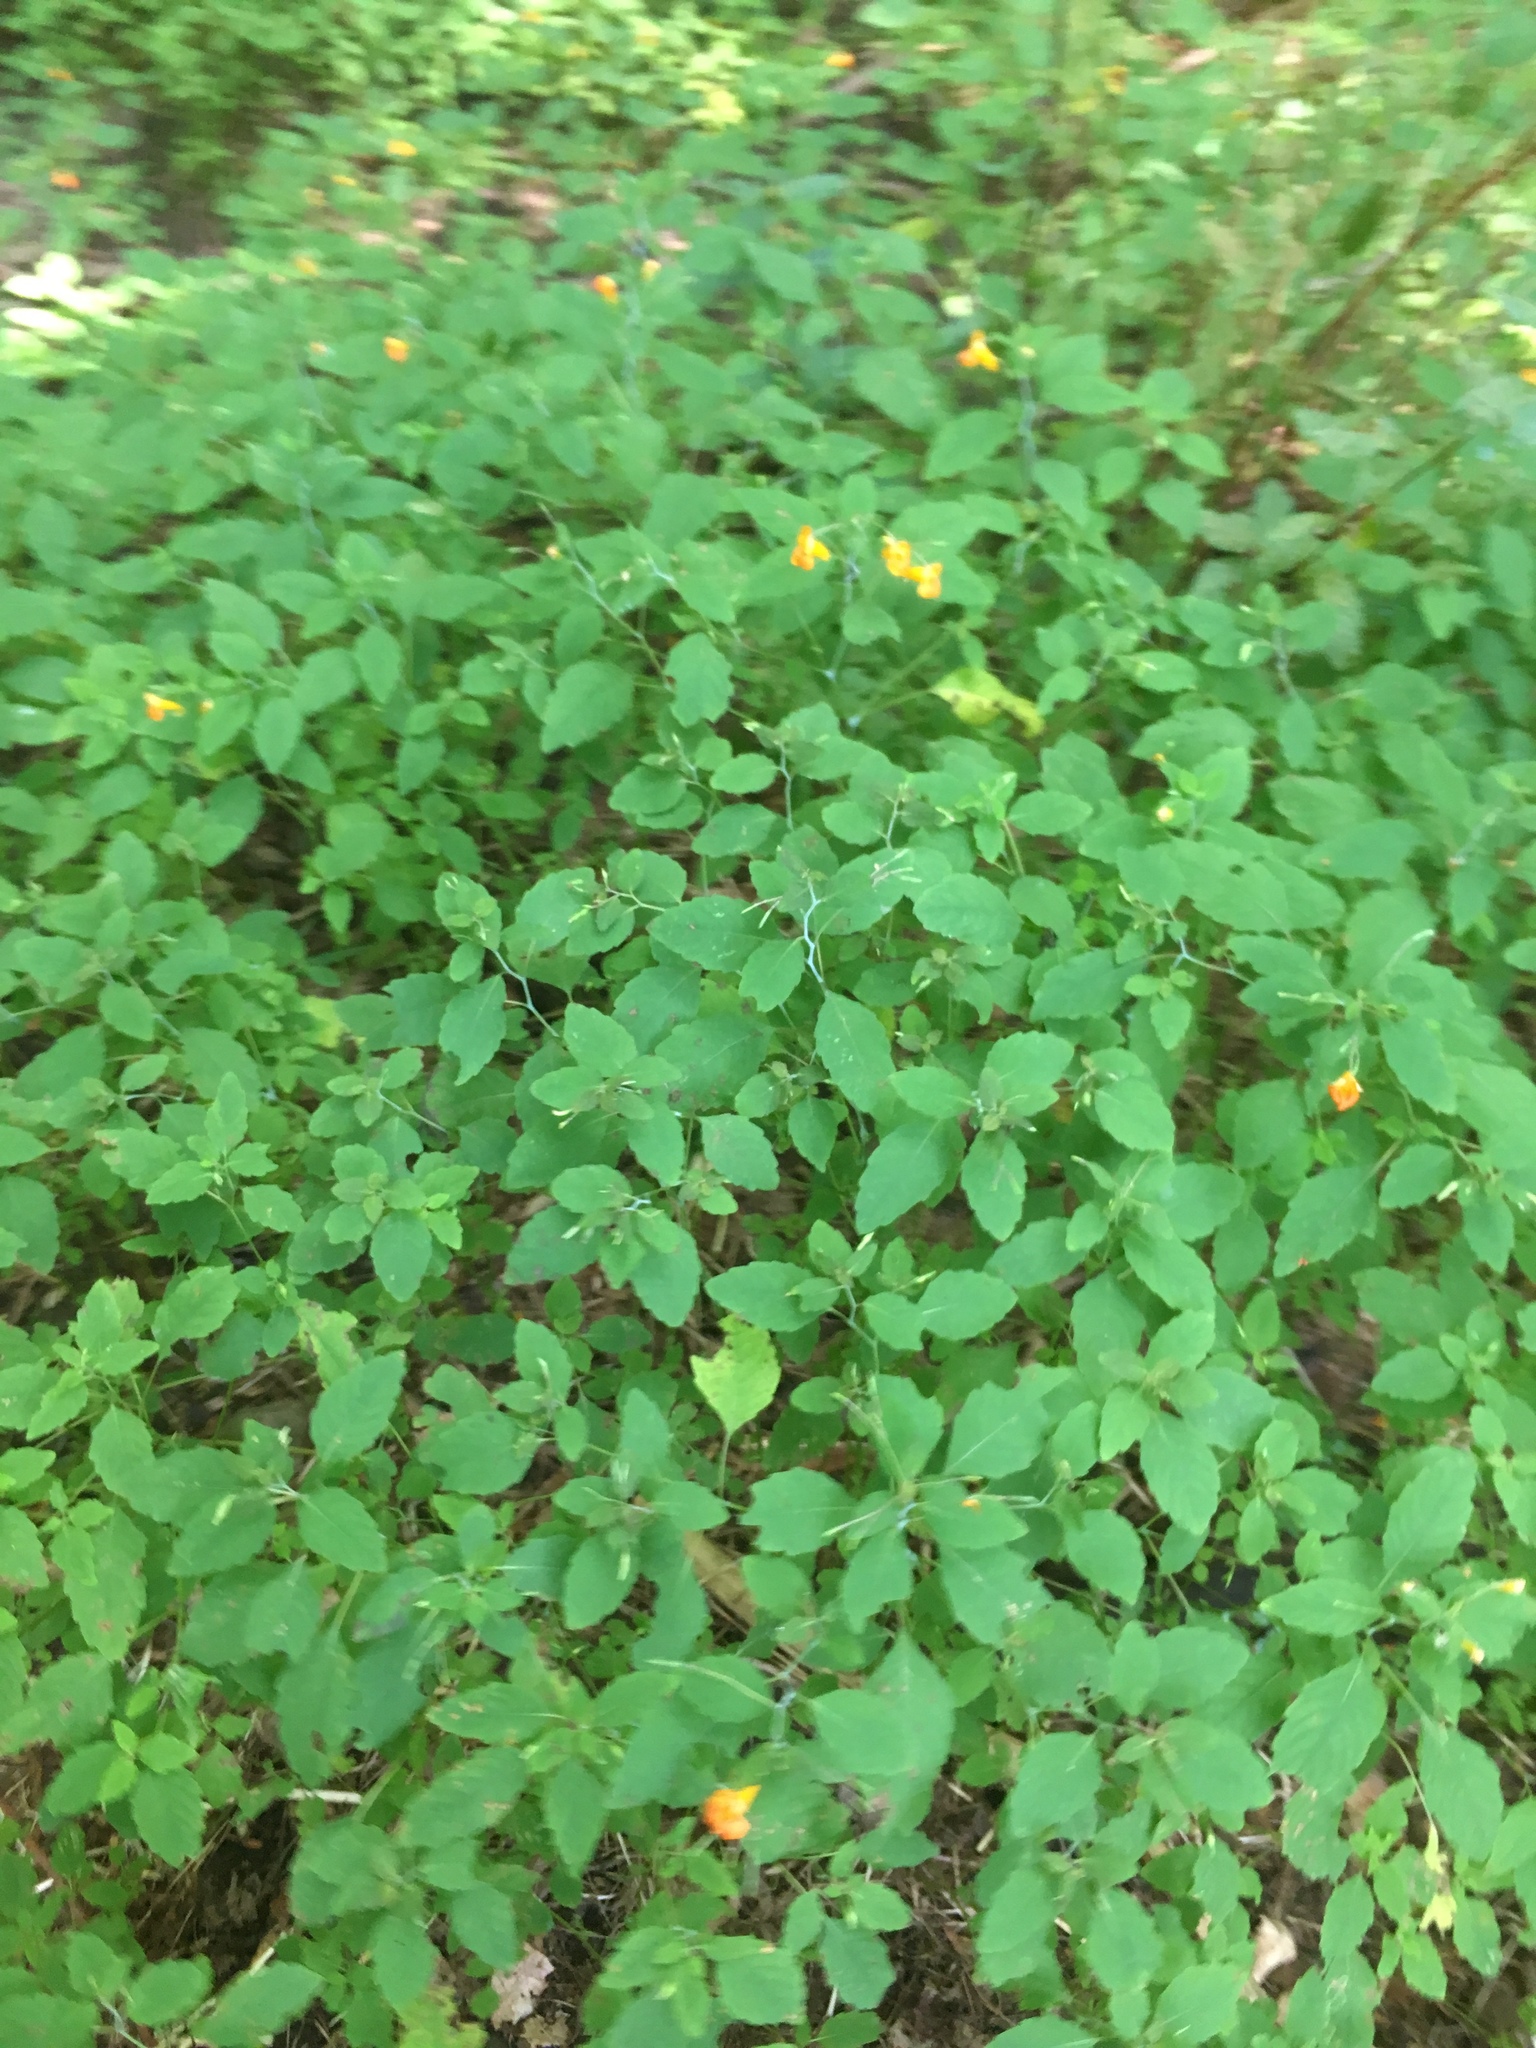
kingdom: Plantae
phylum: Tracheophyta
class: Magnoliopsida
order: Ericales
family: Balsaminaceae
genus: Impatiens
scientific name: Impatiens capensis
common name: Orange balsam
